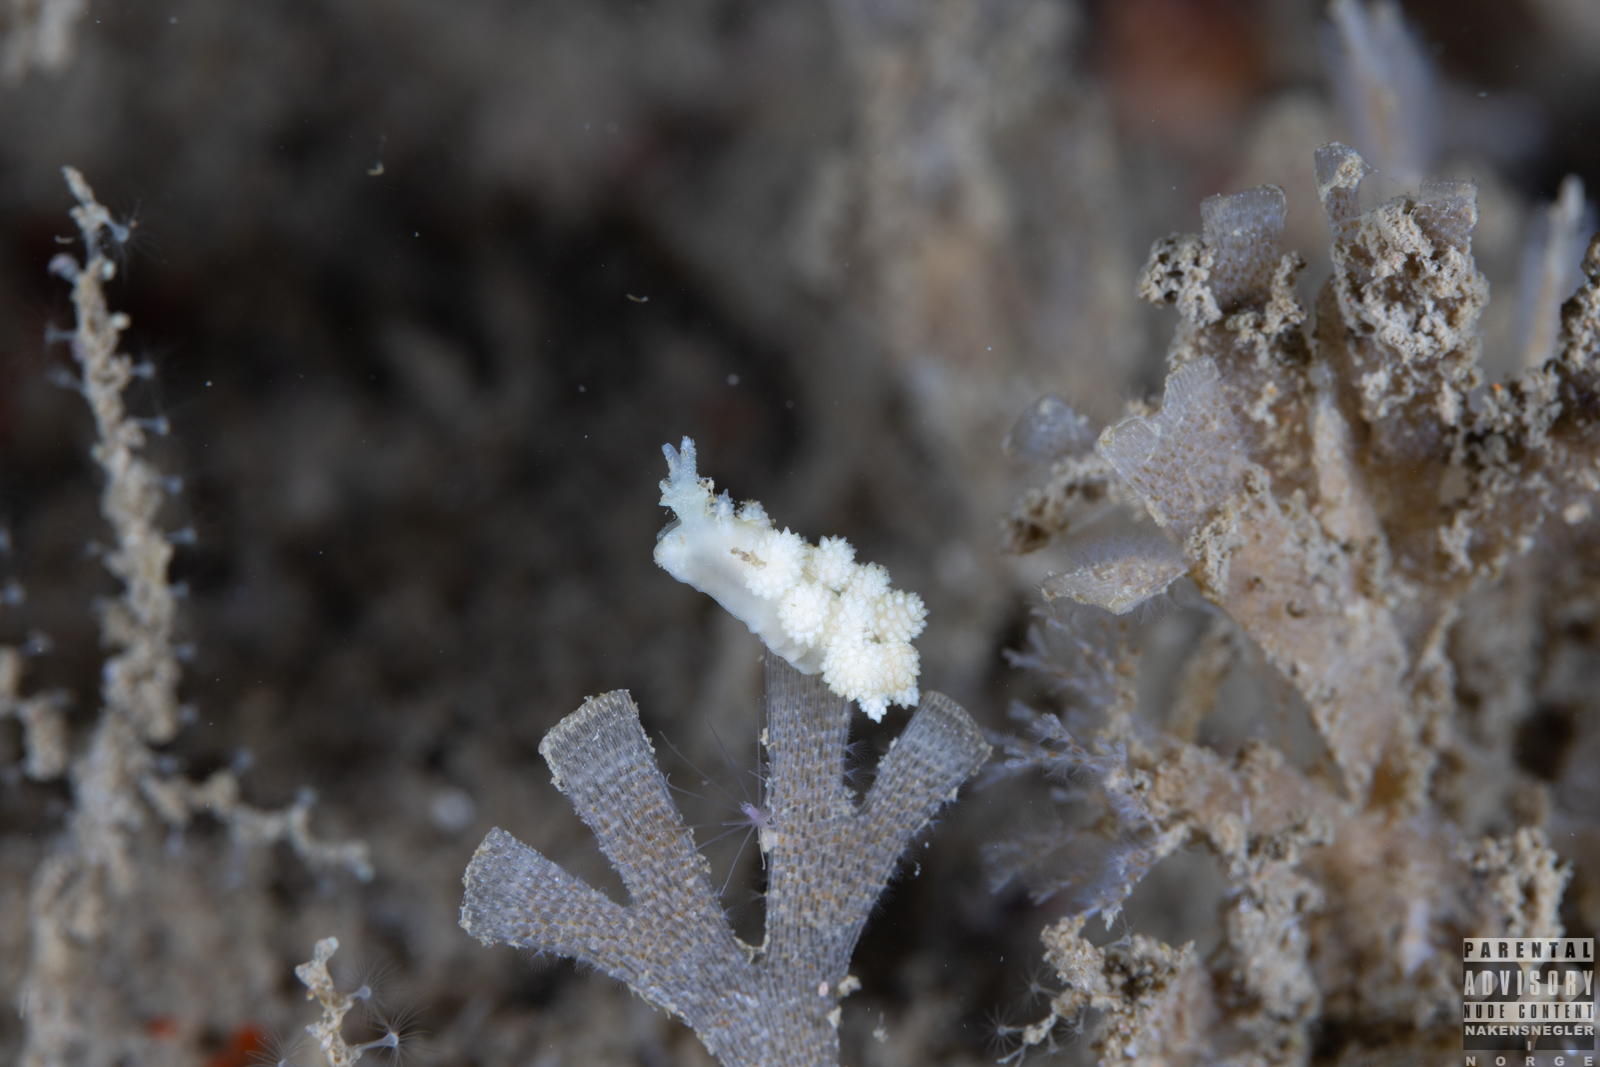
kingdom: Animalia
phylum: Mollusca
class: Gastropoda
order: Nudibranchia
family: Dotidae
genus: Doto
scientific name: Doto fragilis
